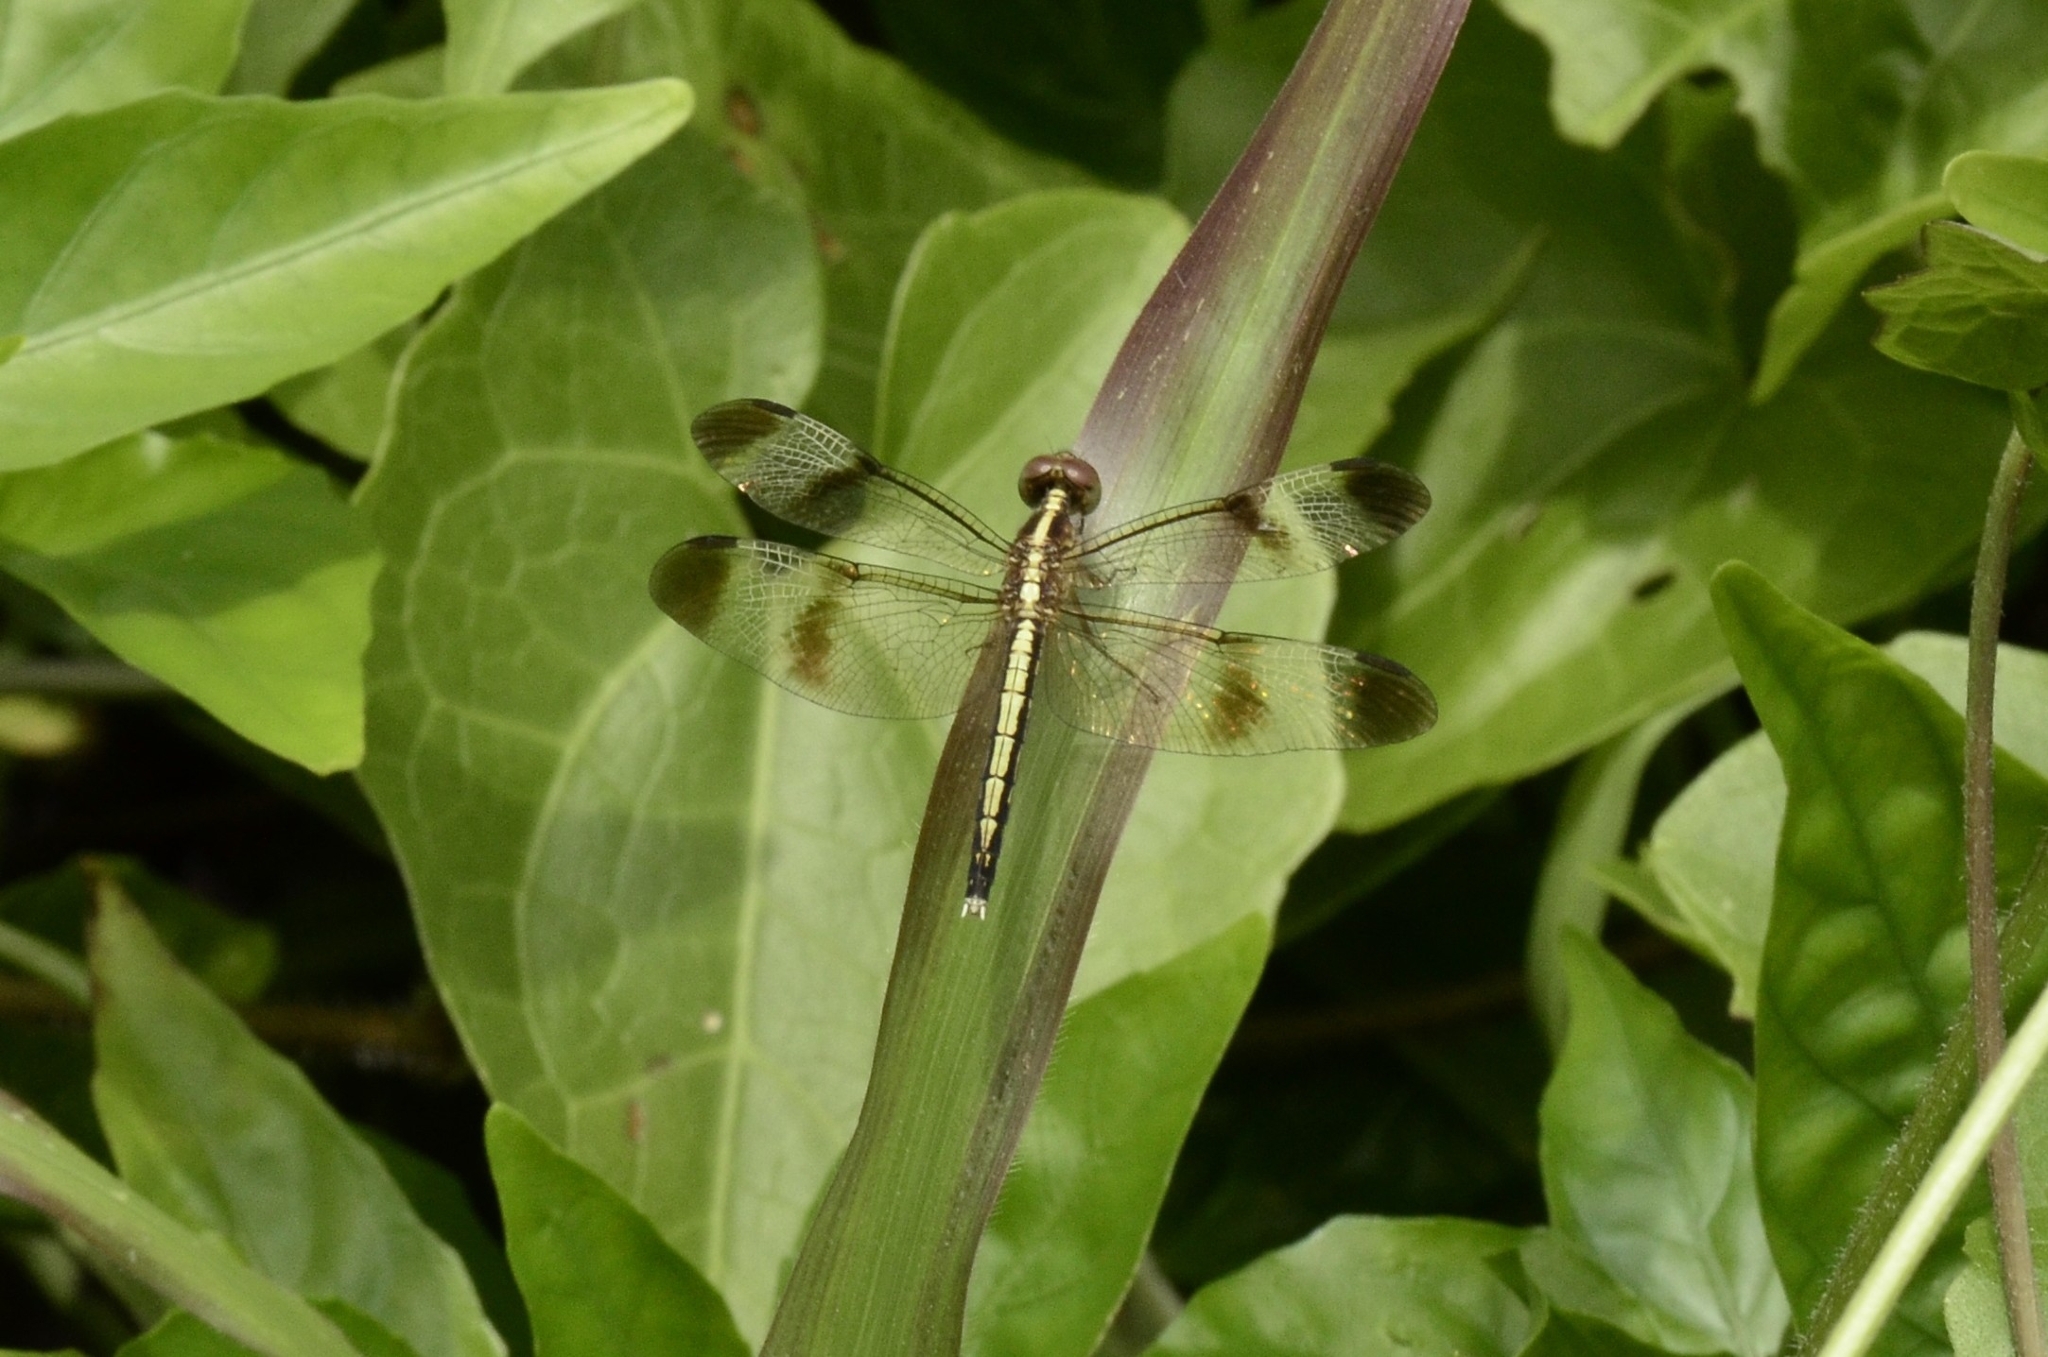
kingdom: Animalia
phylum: Arthropoda
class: Insecta
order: Odonata
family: Libellulidae
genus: Neurothemis
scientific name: Neurothemis tullia
